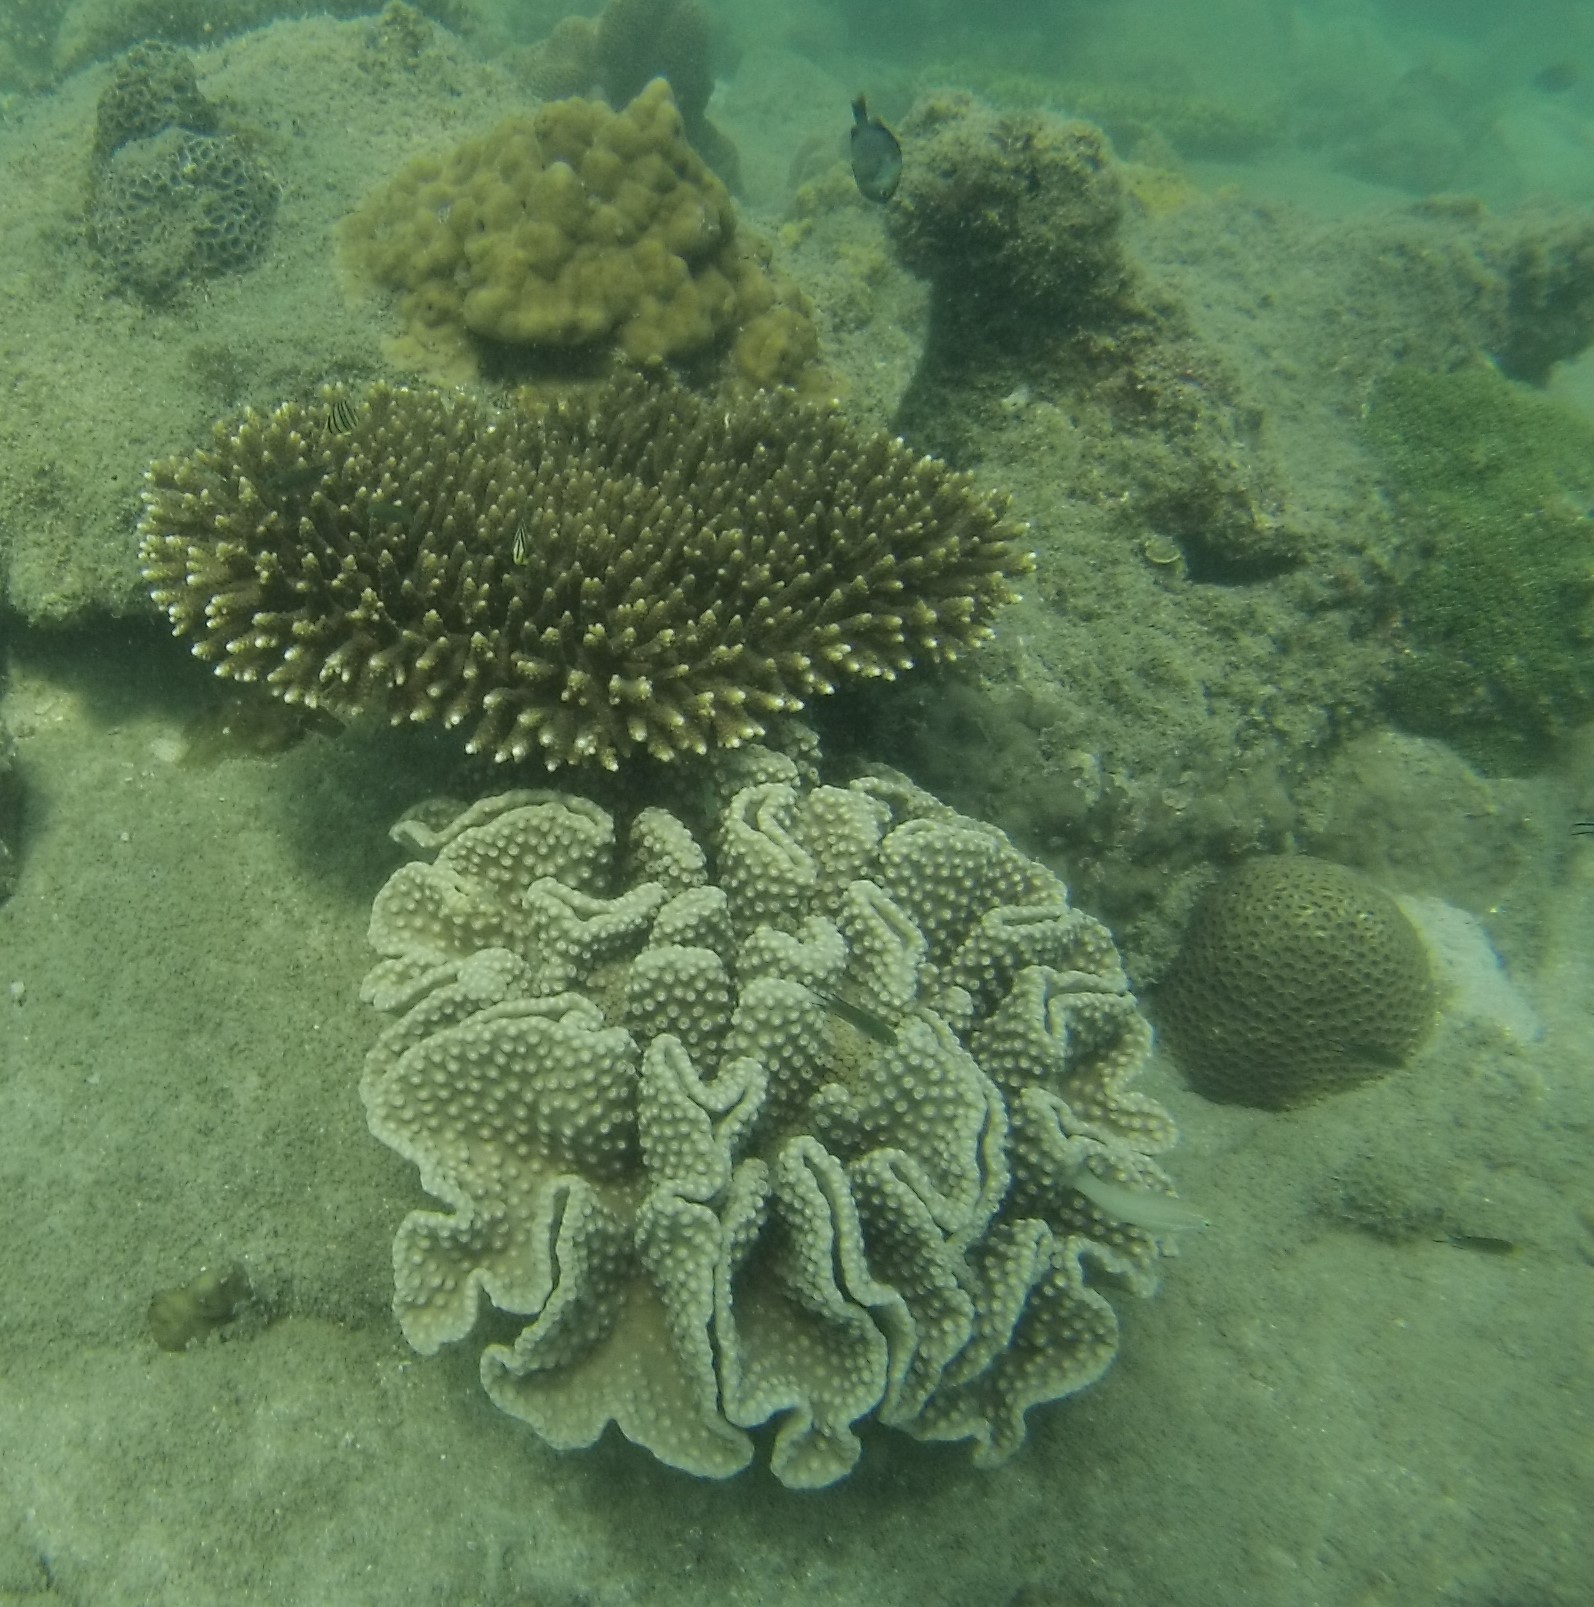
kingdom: Animalia
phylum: Cnidaria
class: Anthozoa
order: Scleractinia
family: Dendrophylliidae
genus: Duncanopsammia
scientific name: Duncanopsammia peltata
